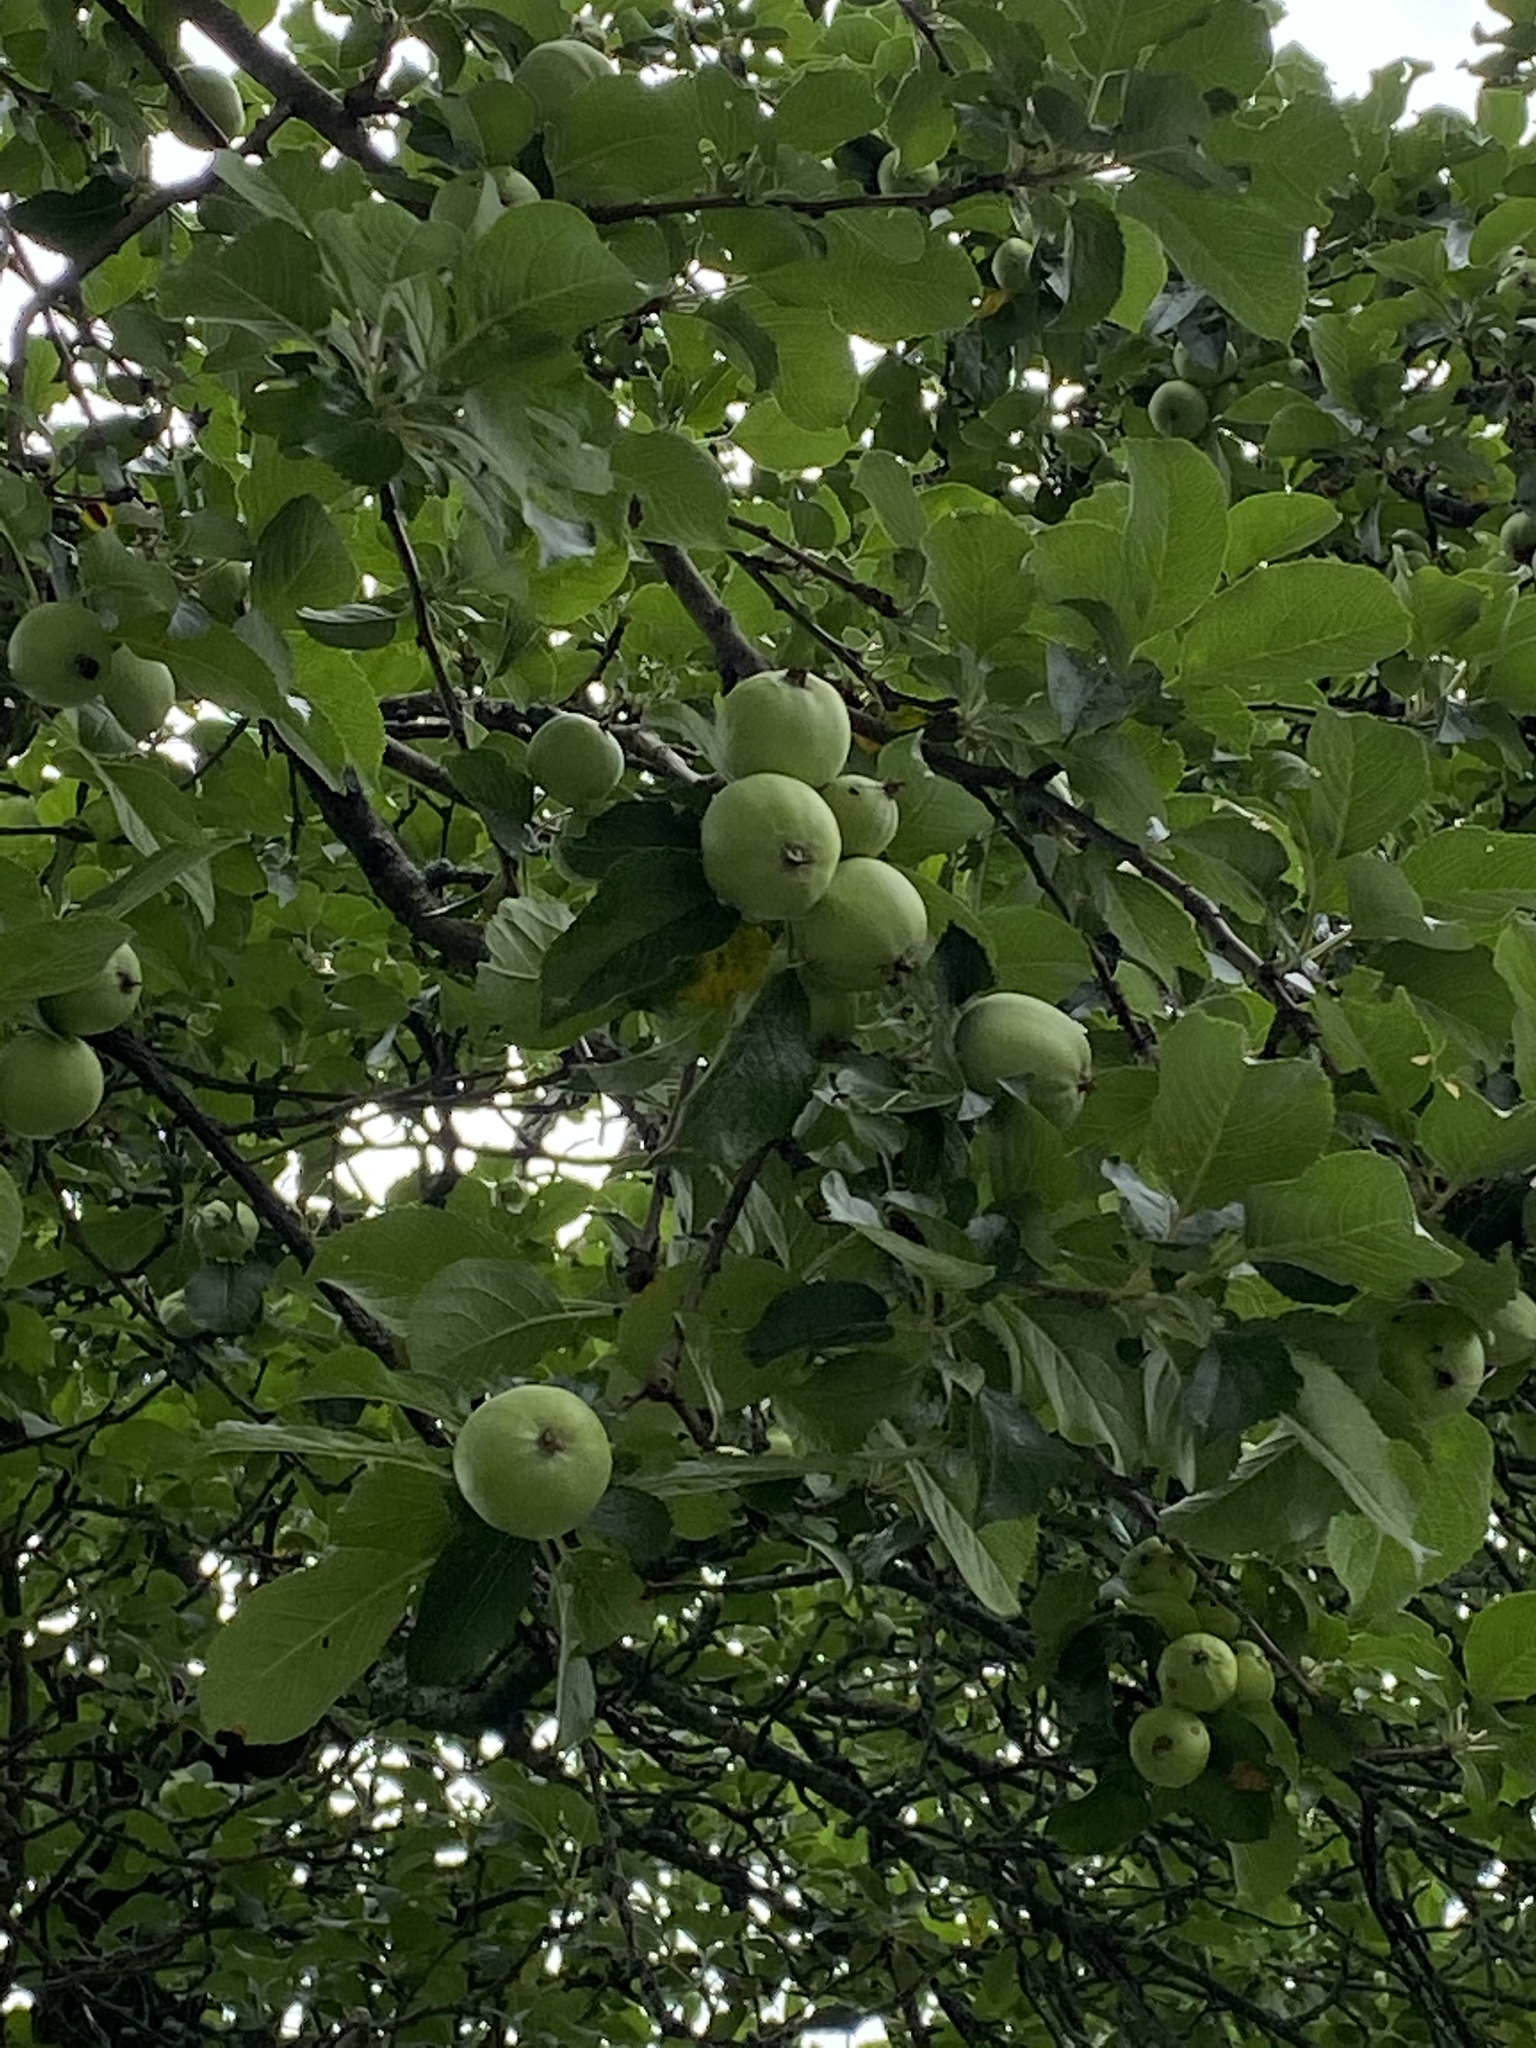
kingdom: Plantae
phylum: Tracheophyta
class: Magnoliopsida
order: Rosales
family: Rosaceae
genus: Malus
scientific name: Malus domestica
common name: Apple
